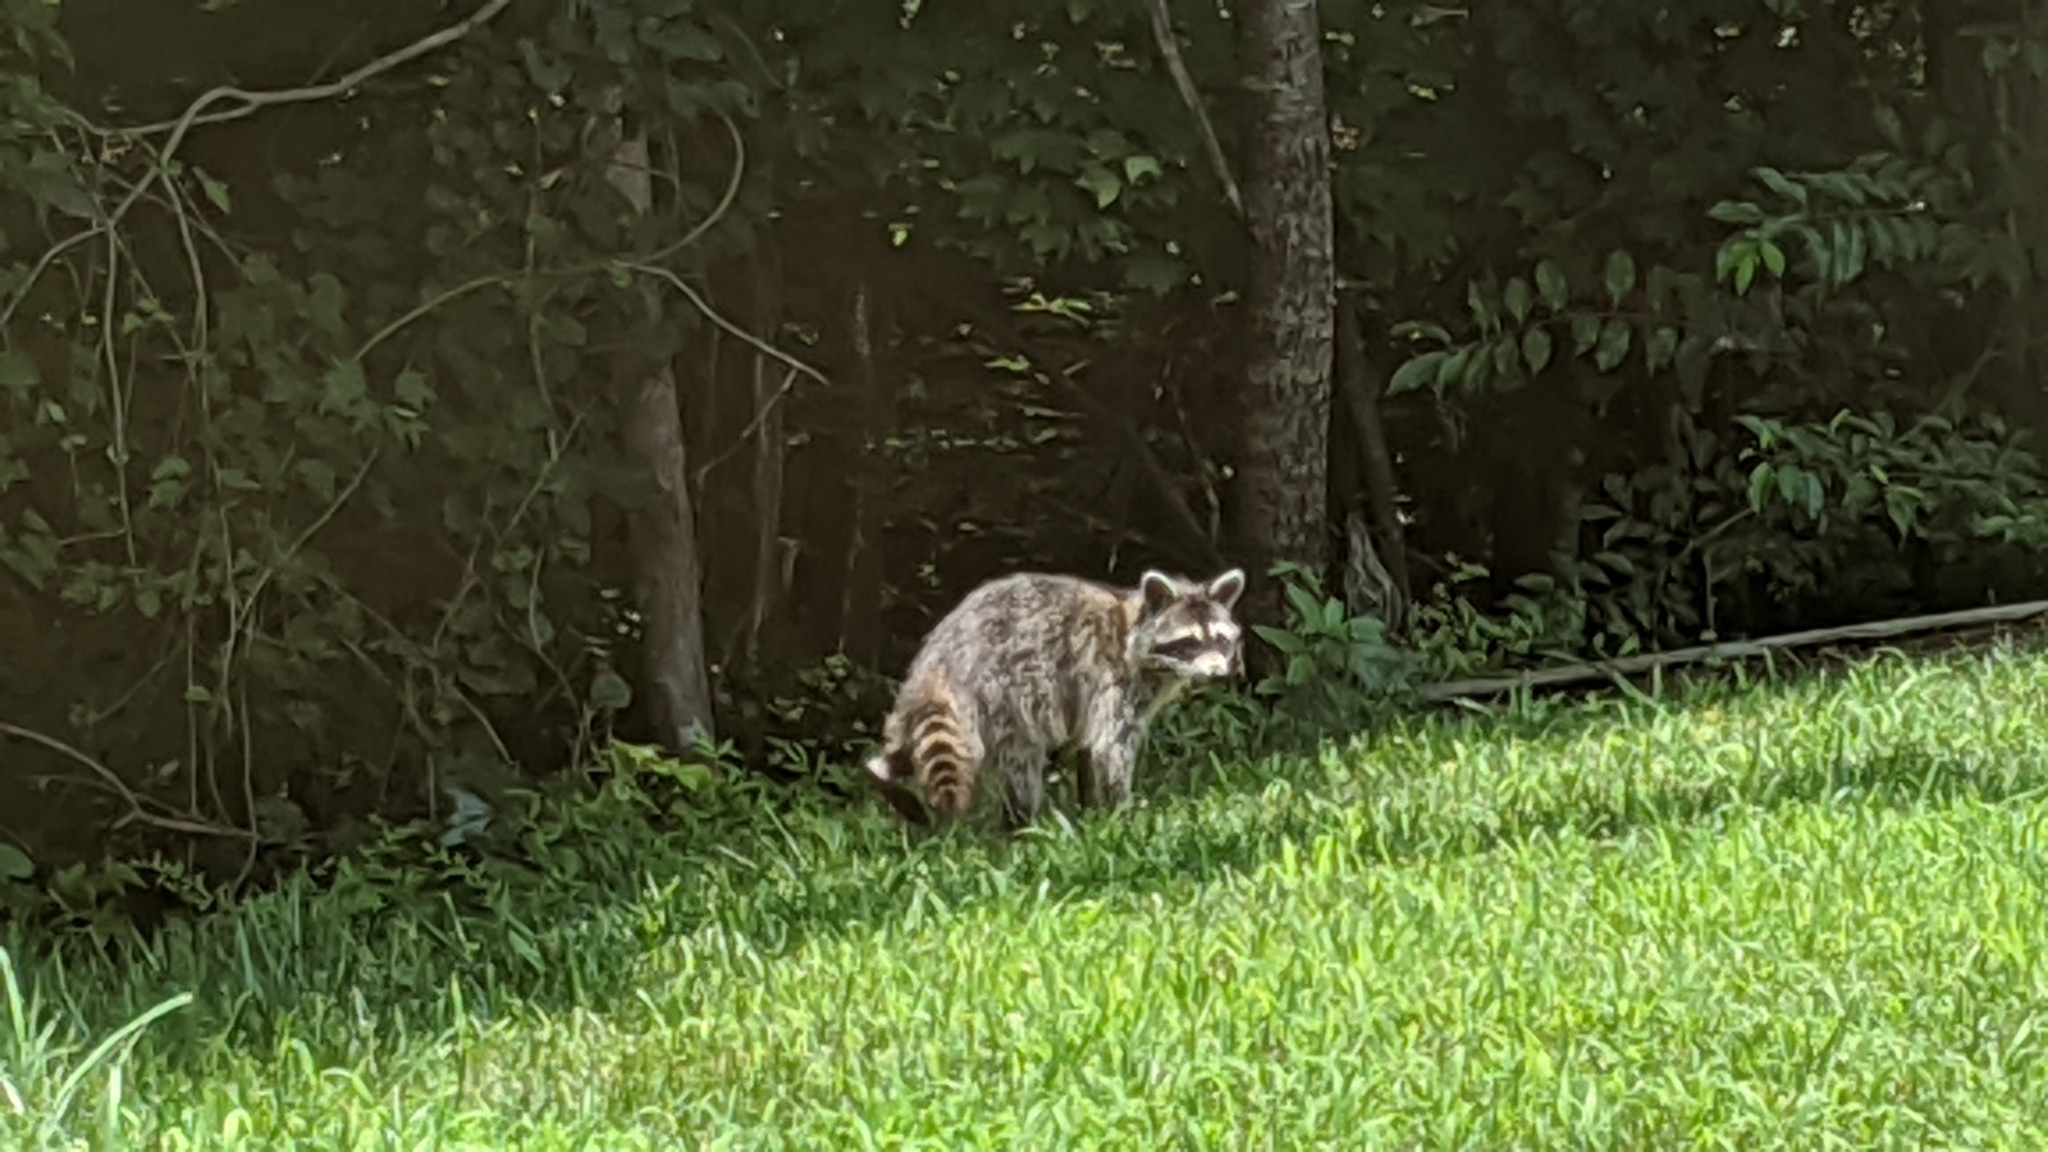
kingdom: Animalia
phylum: Chordata
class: Mammalia
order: Carnivora
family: Procyonidae
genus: Procyon
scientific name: Procyon lotor
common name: Raccoon
